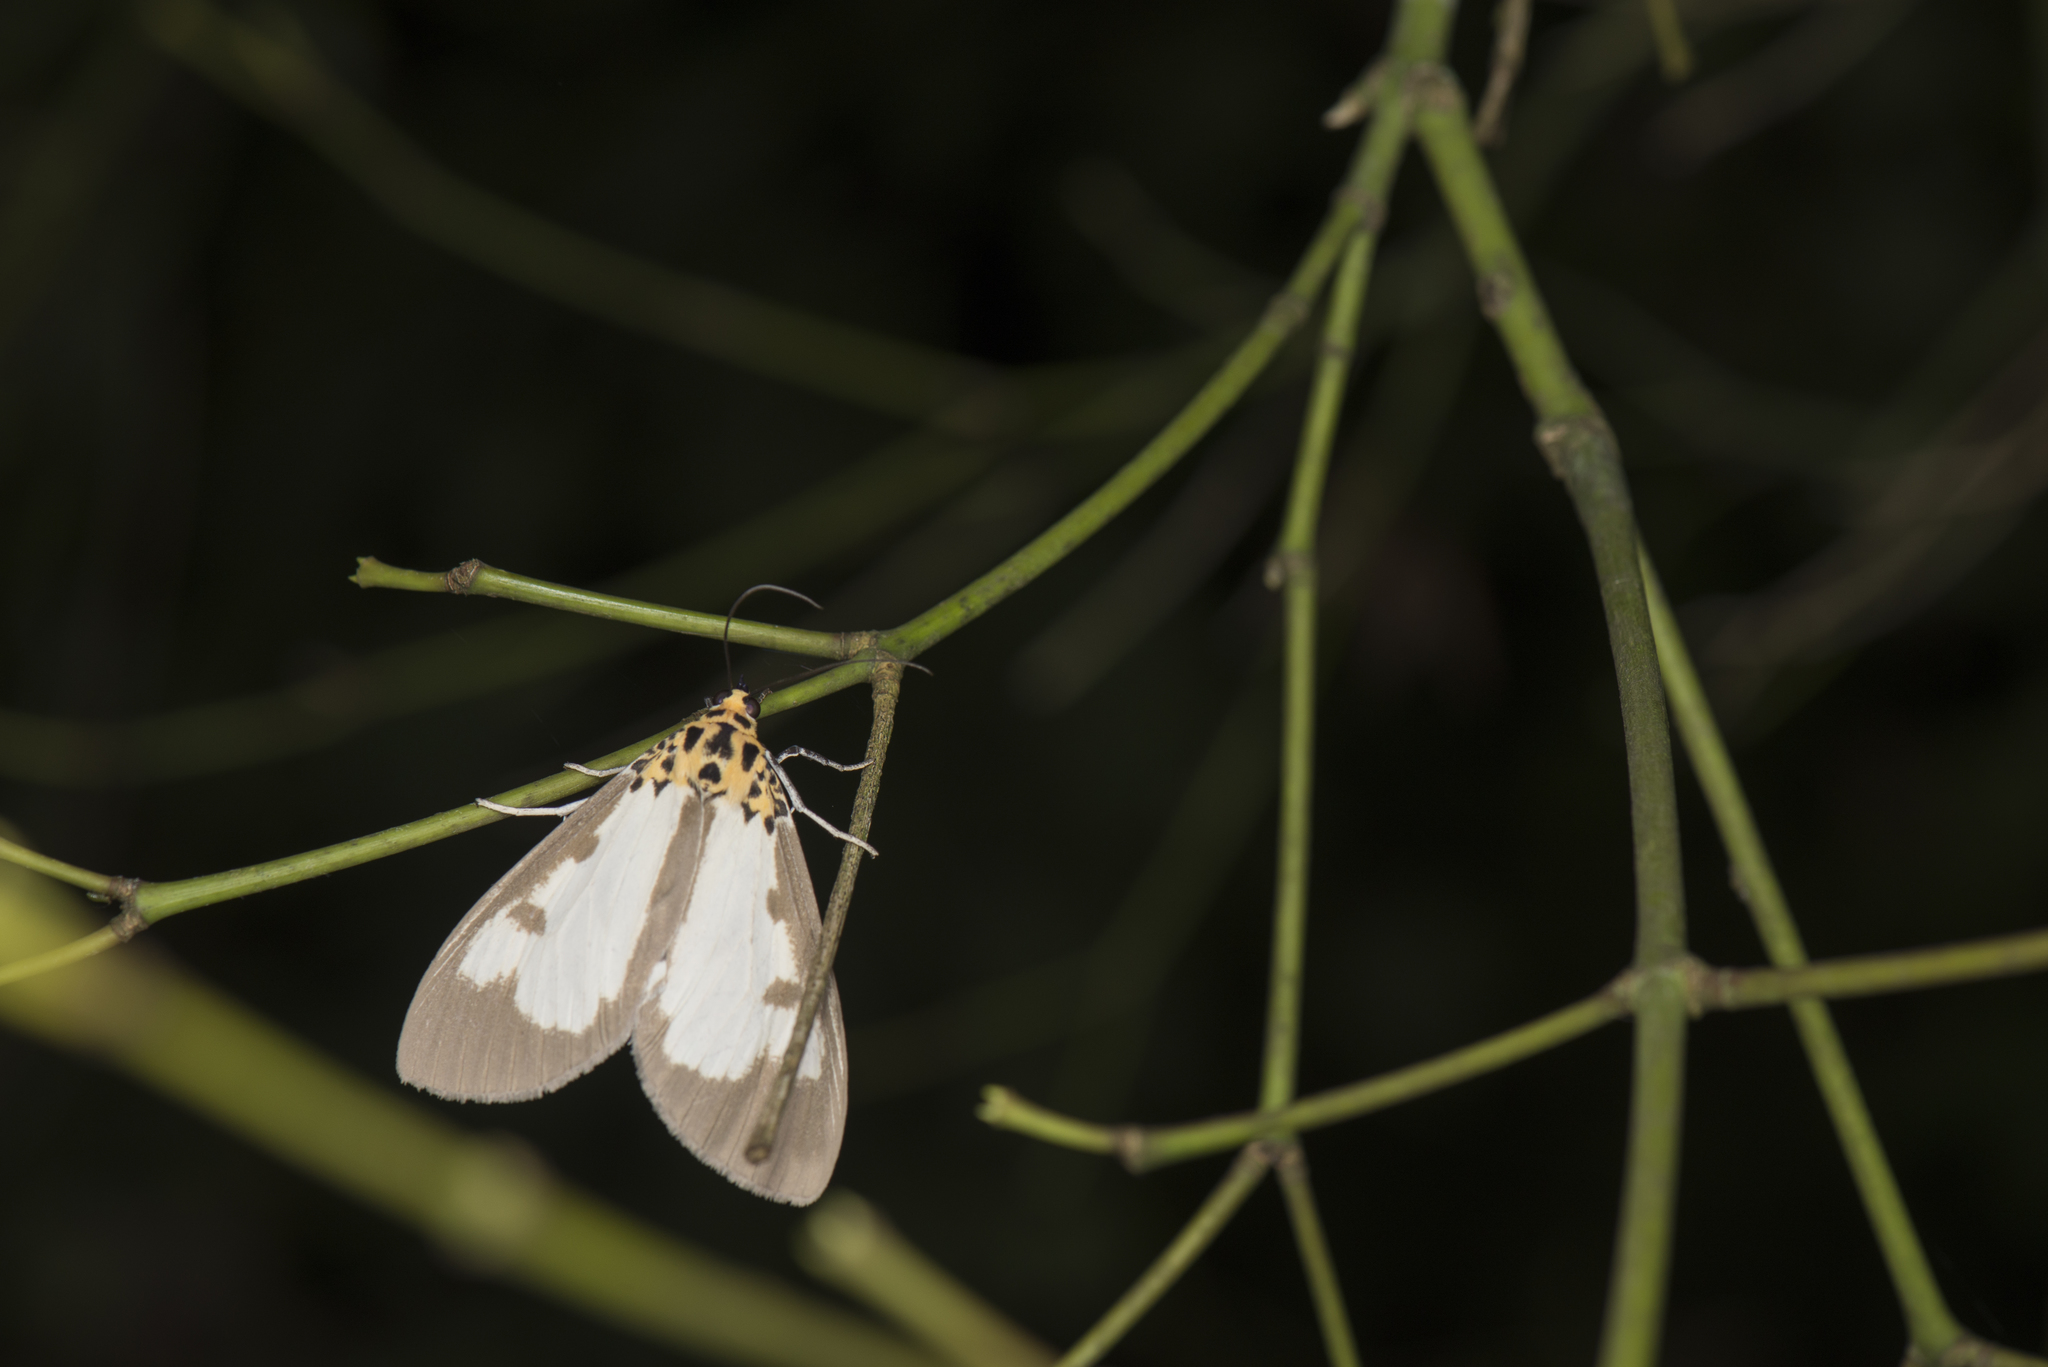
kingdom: Animalia
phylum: Arthropoda
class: Insecta
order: Lepidoptera
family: Erebidae
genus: Asota
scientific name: Asota plana
